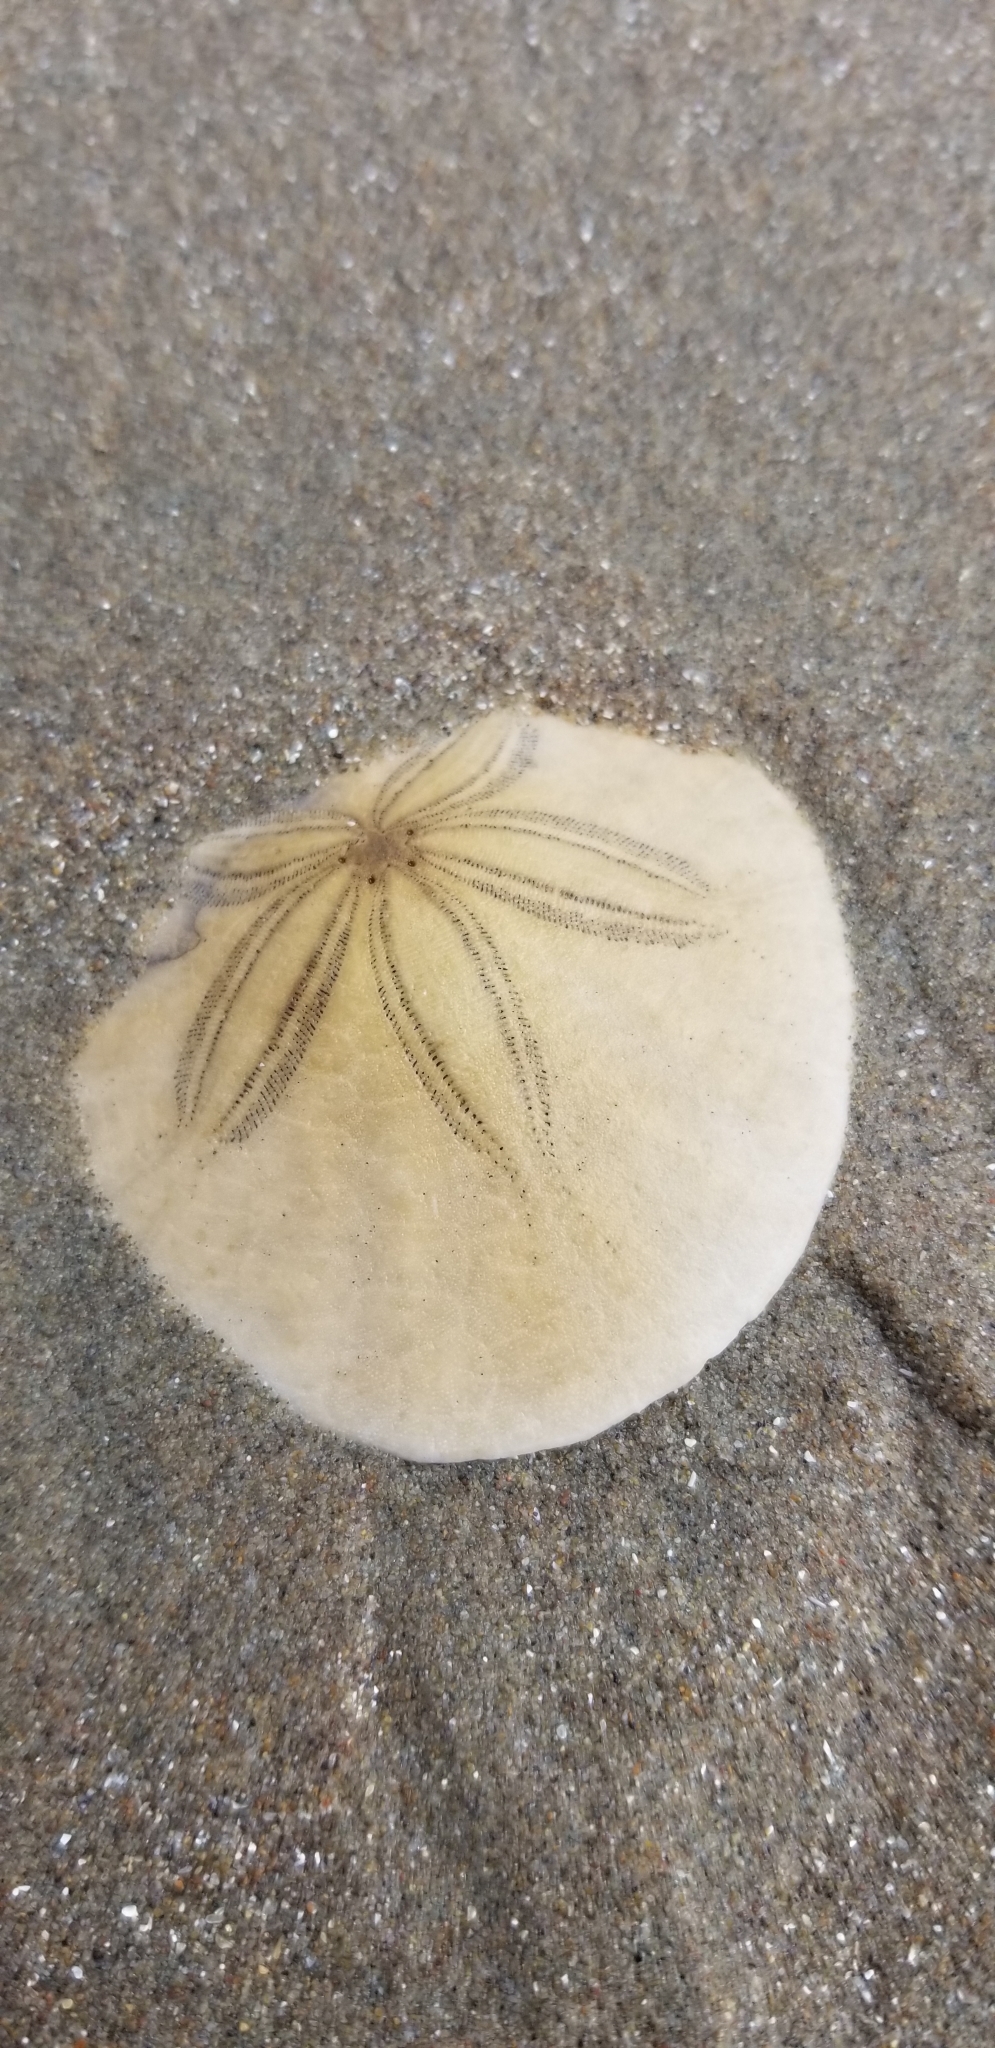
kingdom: Animalia
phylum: Echinodermata
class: Echinoidea
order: Echinolampadacea
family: Dendrasteridae
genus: Dendraster
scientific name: Dendraster excentricus
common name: Eccentric sand dollar sea urchin
